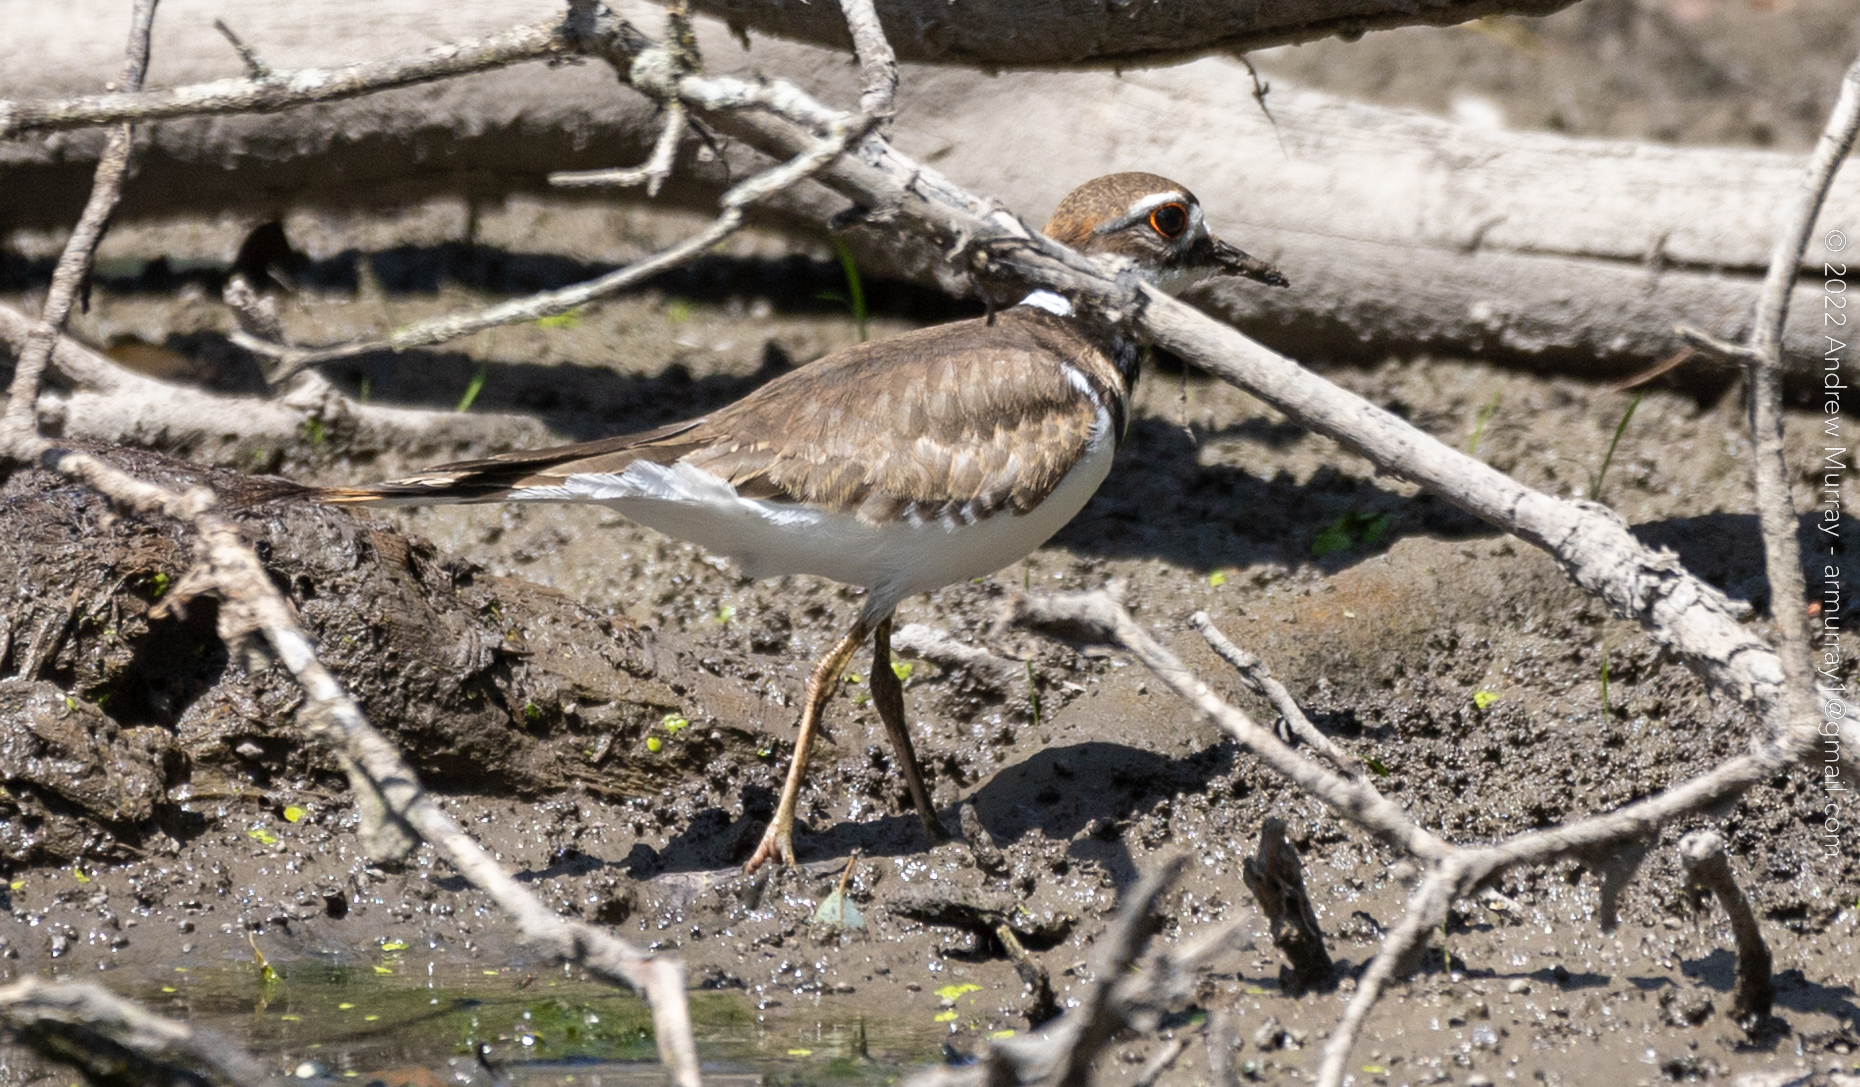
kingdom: Animalia
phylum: Chordata
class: Aves
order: Charadriiformes
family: Charadriidae
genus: Charadrius
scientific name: Charadrius vociferus
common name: Killdeer
